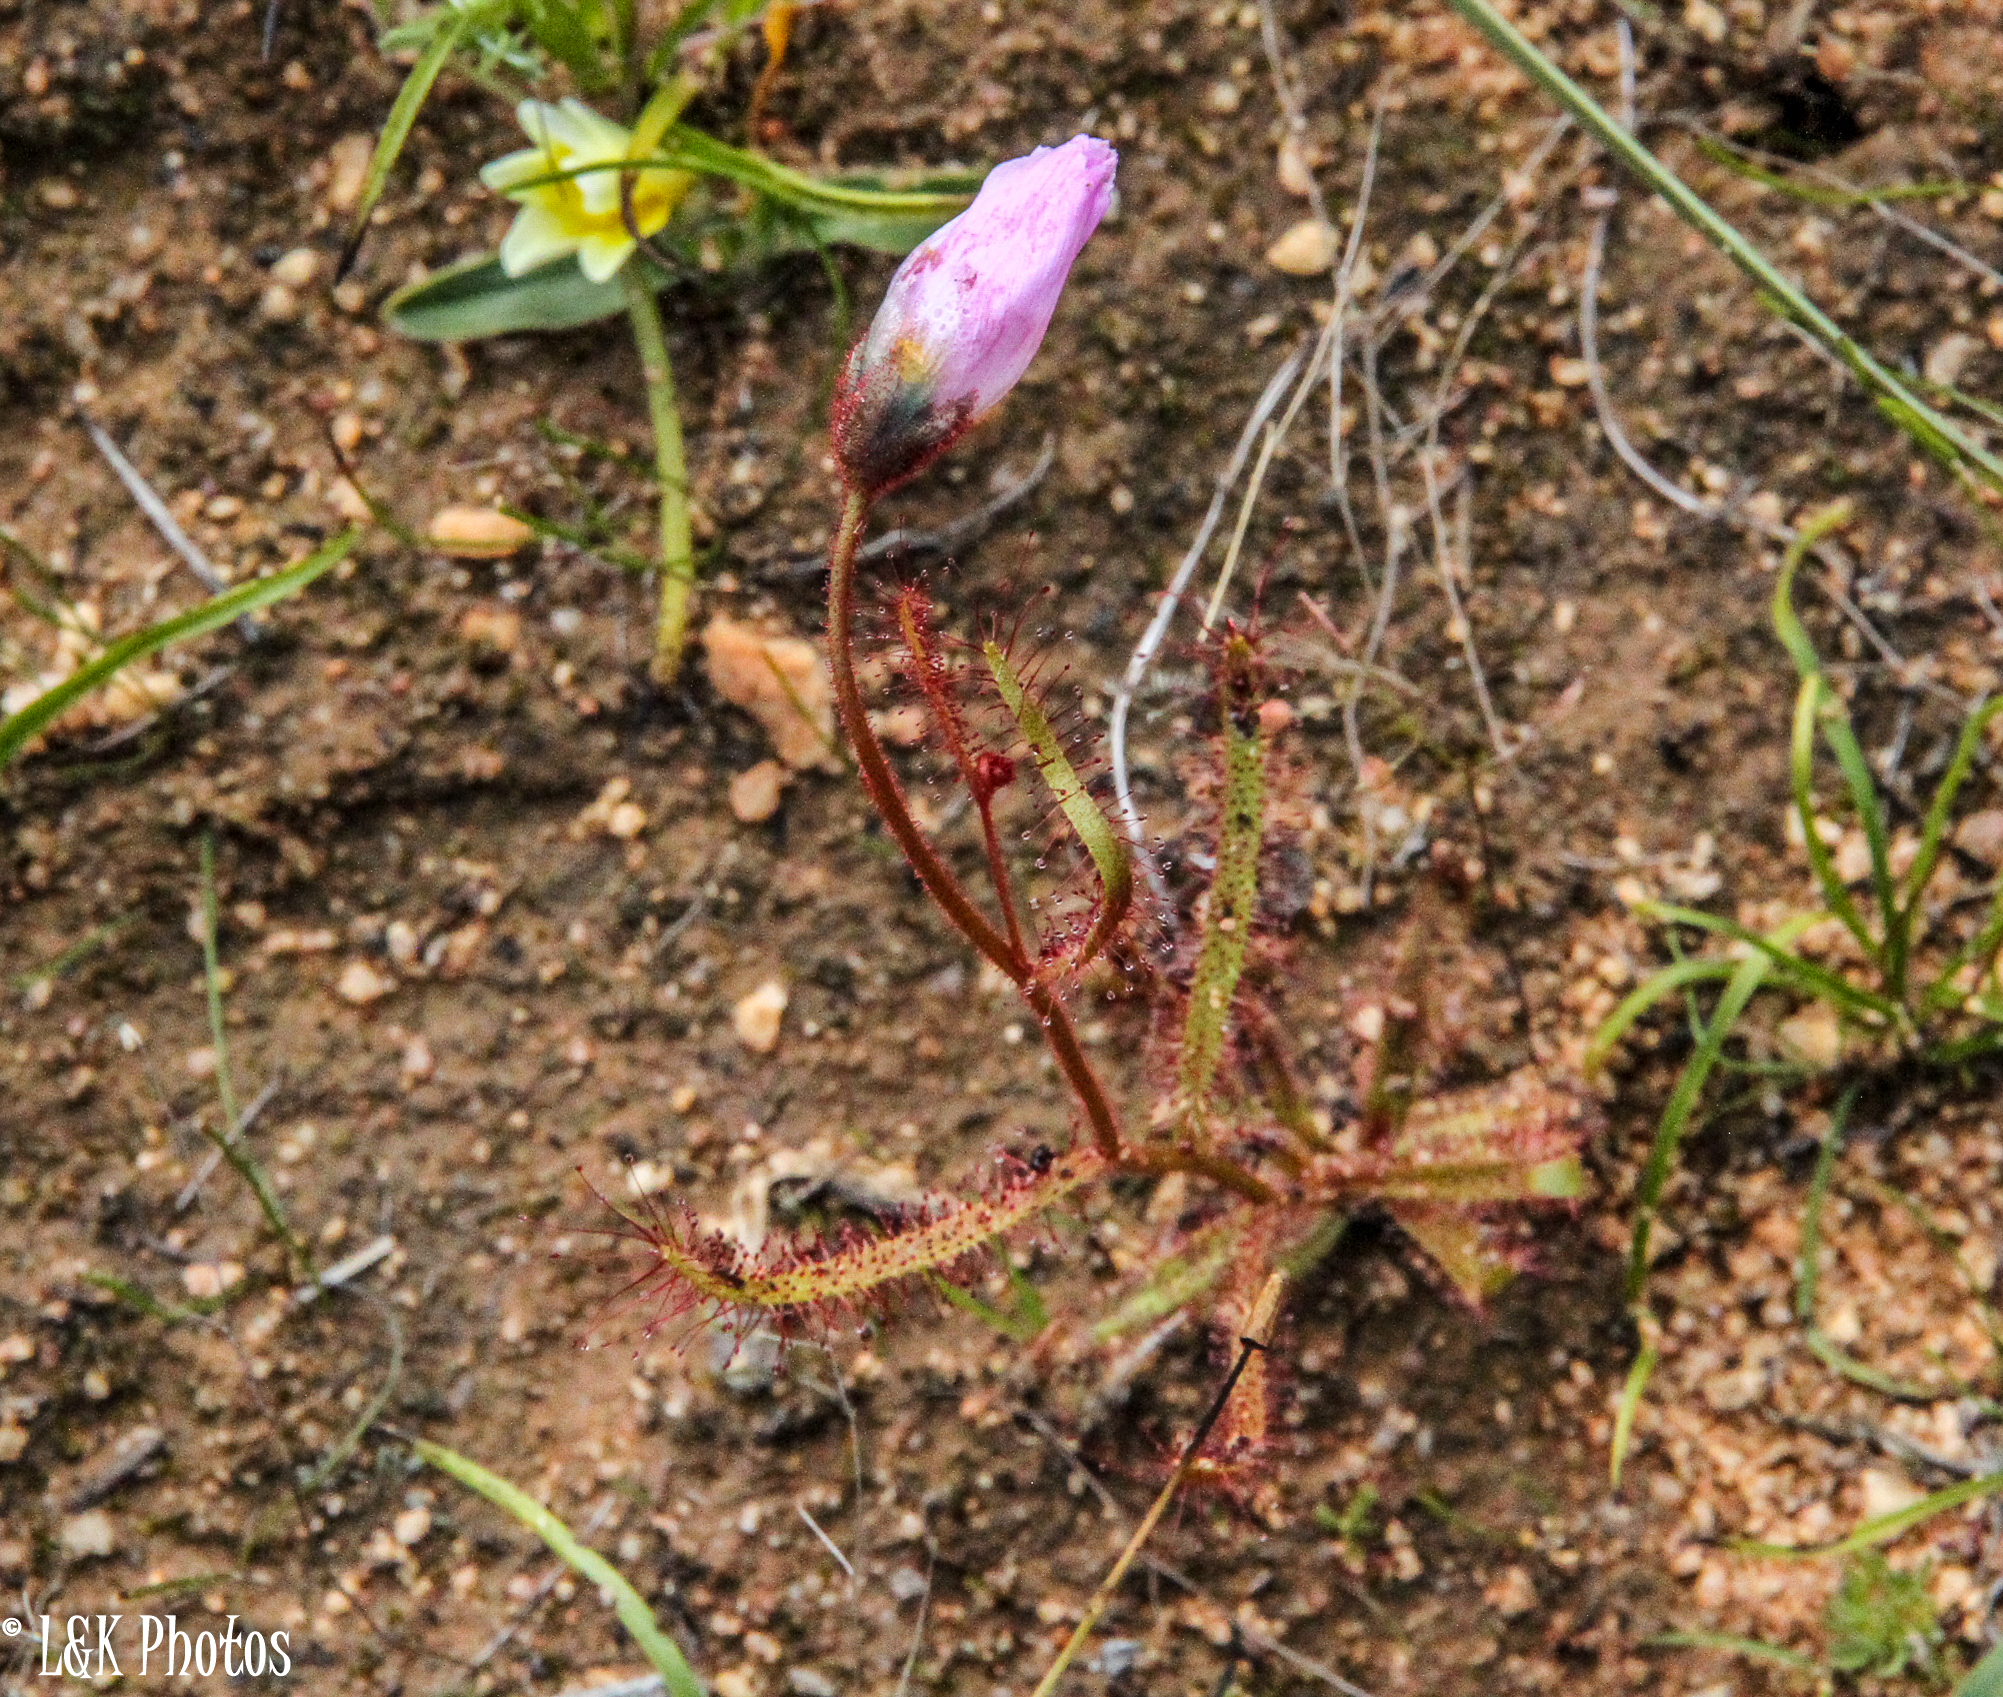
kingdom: Plantae
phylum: Tracheophyta
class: Magnoliopsida
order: Caryophyllales
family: Droseraceae
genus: Drosera
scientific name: Drosera cistiflora
